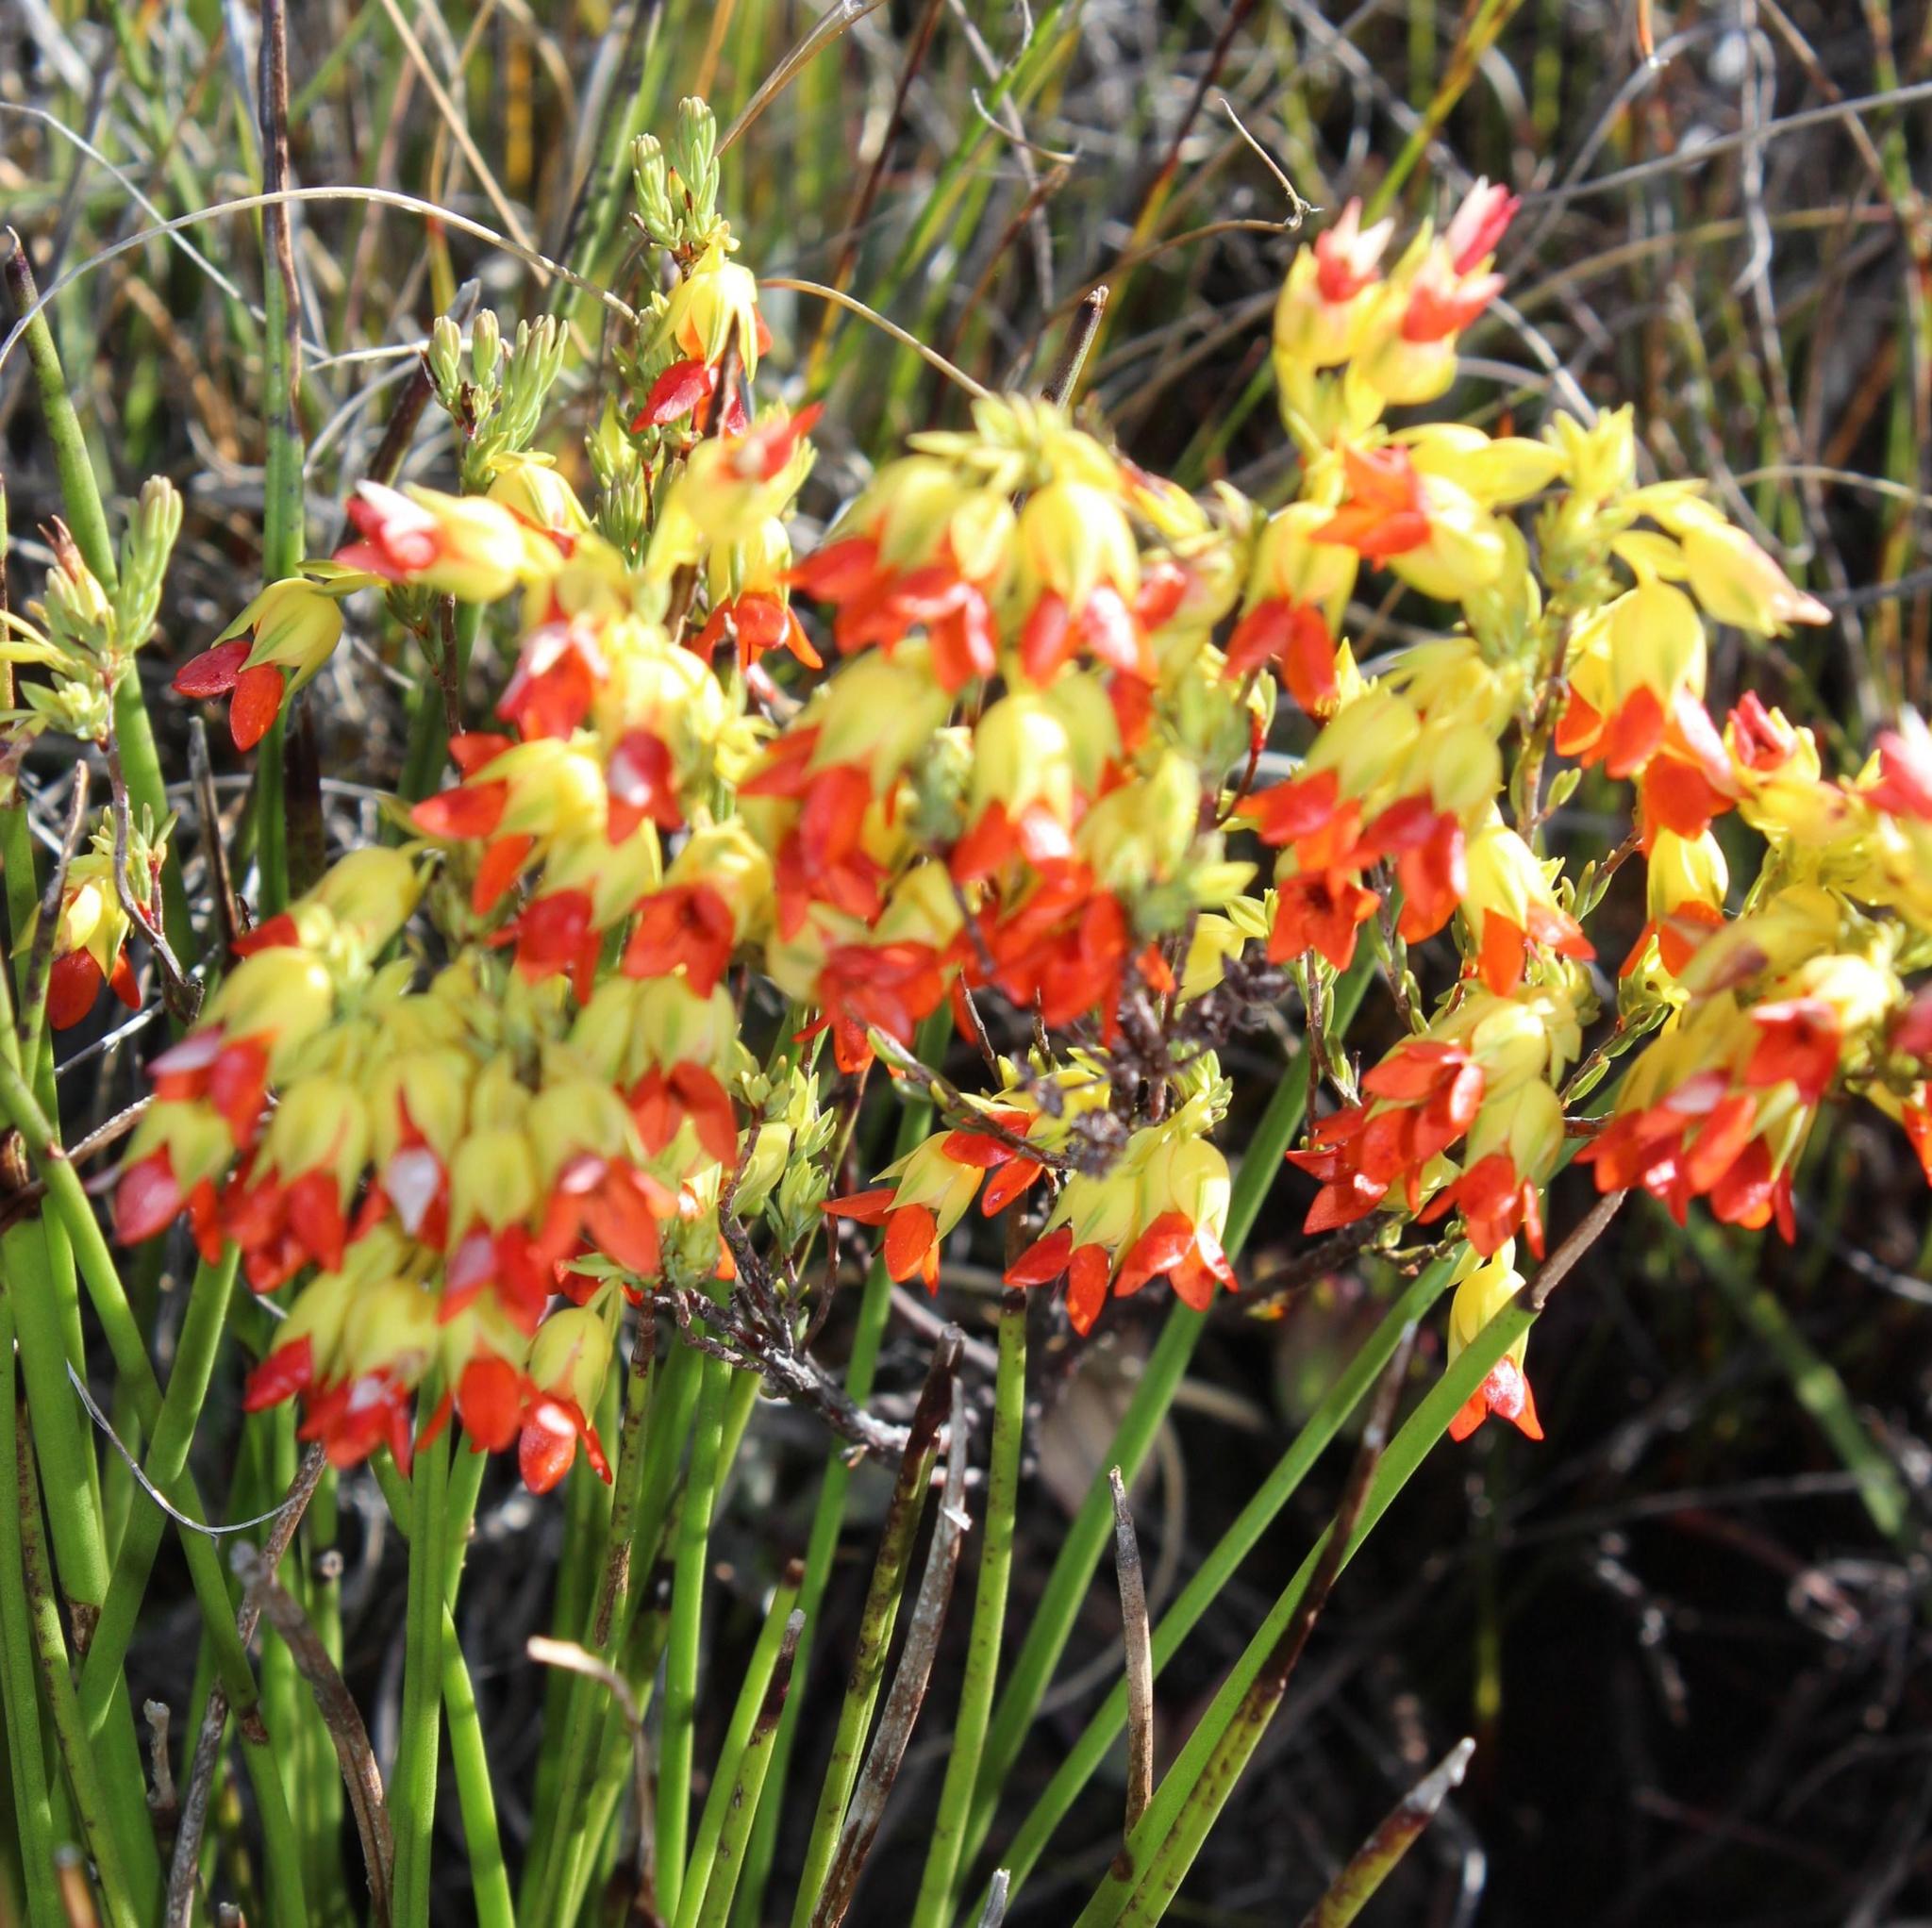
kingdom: Plantae
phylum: Tracheophyta
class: Magnoliopsida
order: Ericales
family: Ericaceae
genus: Erica
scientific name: Erica thunbergii
